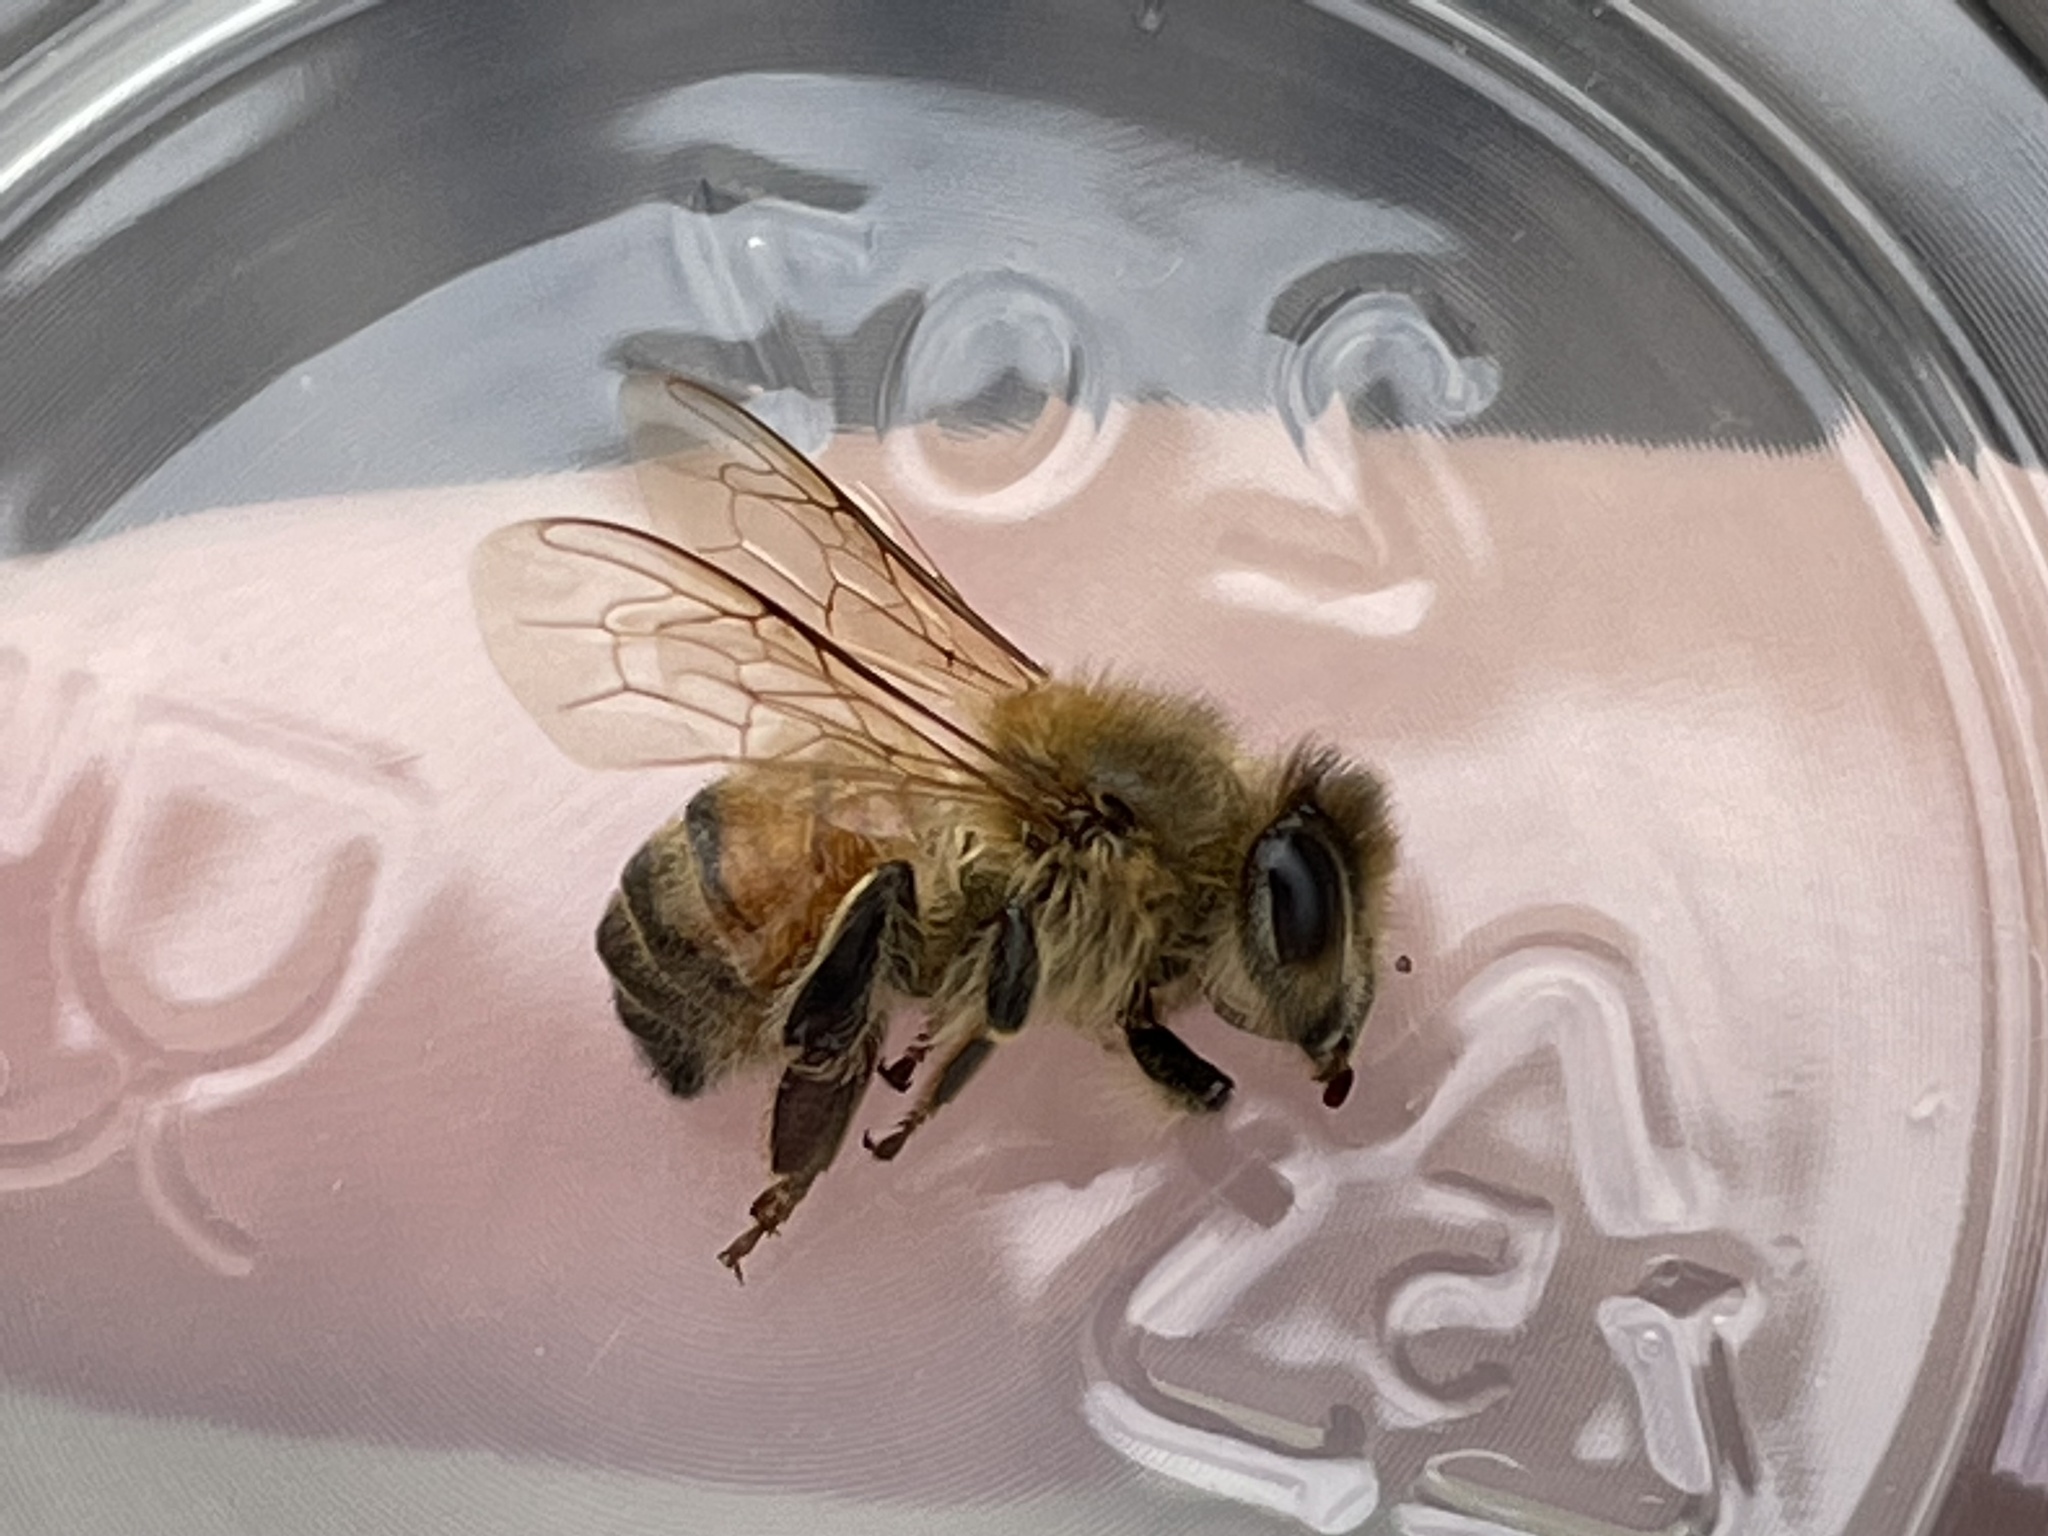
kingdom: Animalia
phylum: Arthropoda
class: Insecta
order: Hymenoptera
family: Apidae
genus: Apis
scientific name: Apis mellifera
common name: Honey bee
